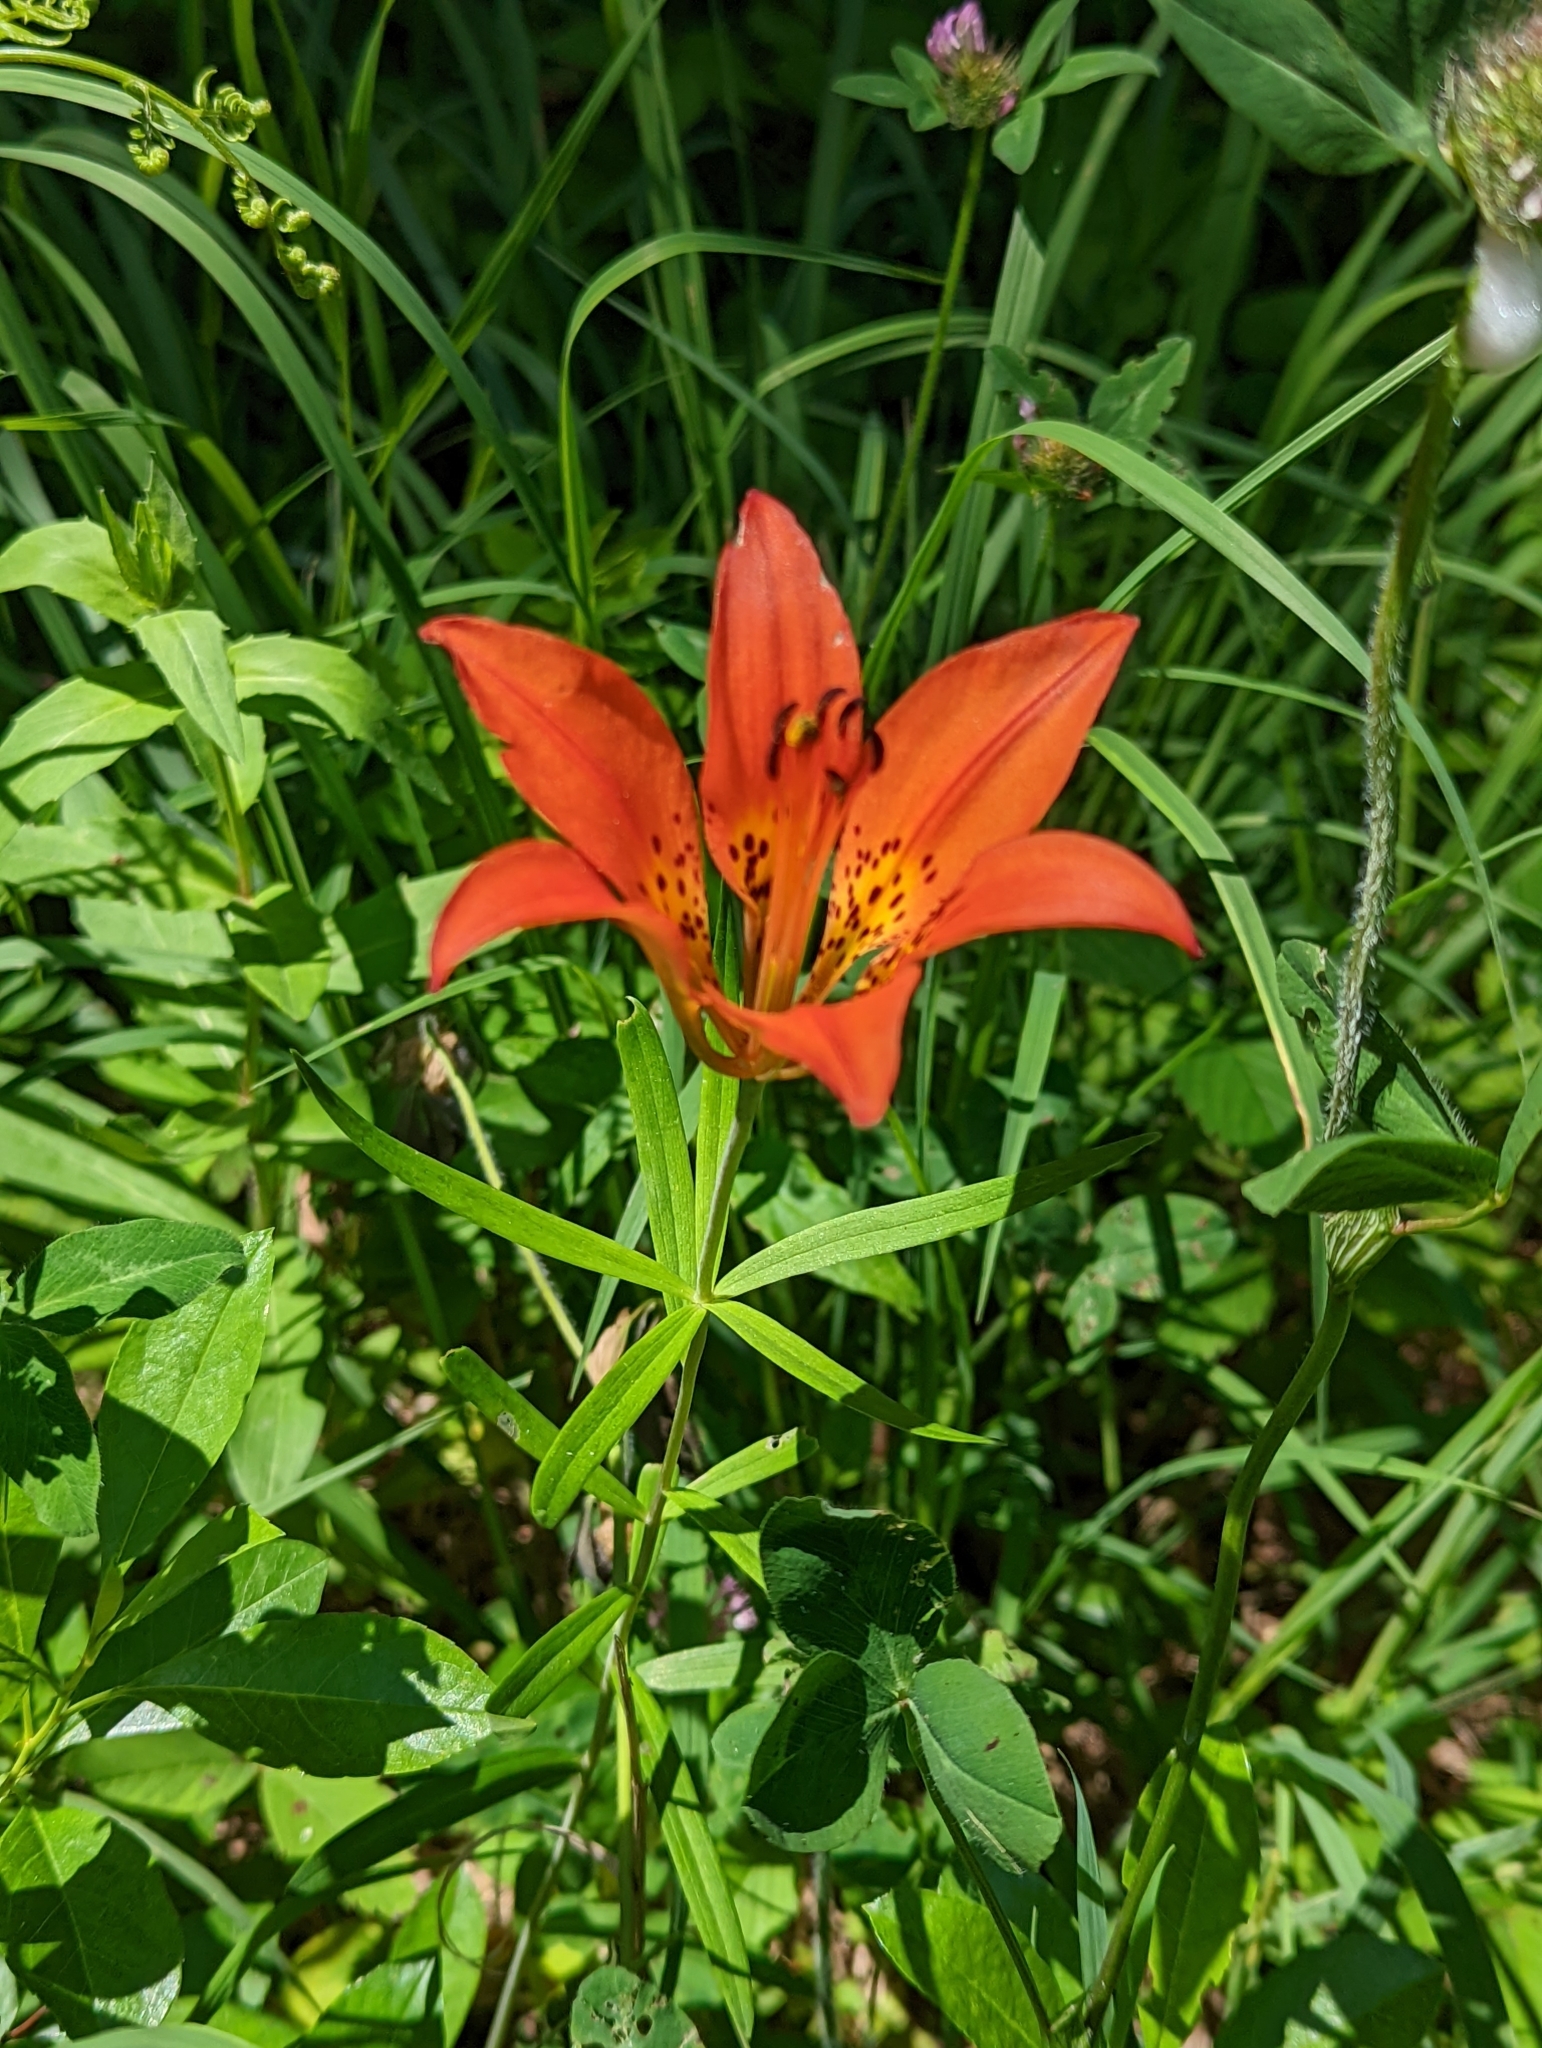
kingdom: Plantae
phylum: Tracheophyta
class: Liliopsida
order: Liliales
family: Liliaceae
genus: Lilium
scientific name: Lilium philadelphicum
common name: Red lily
